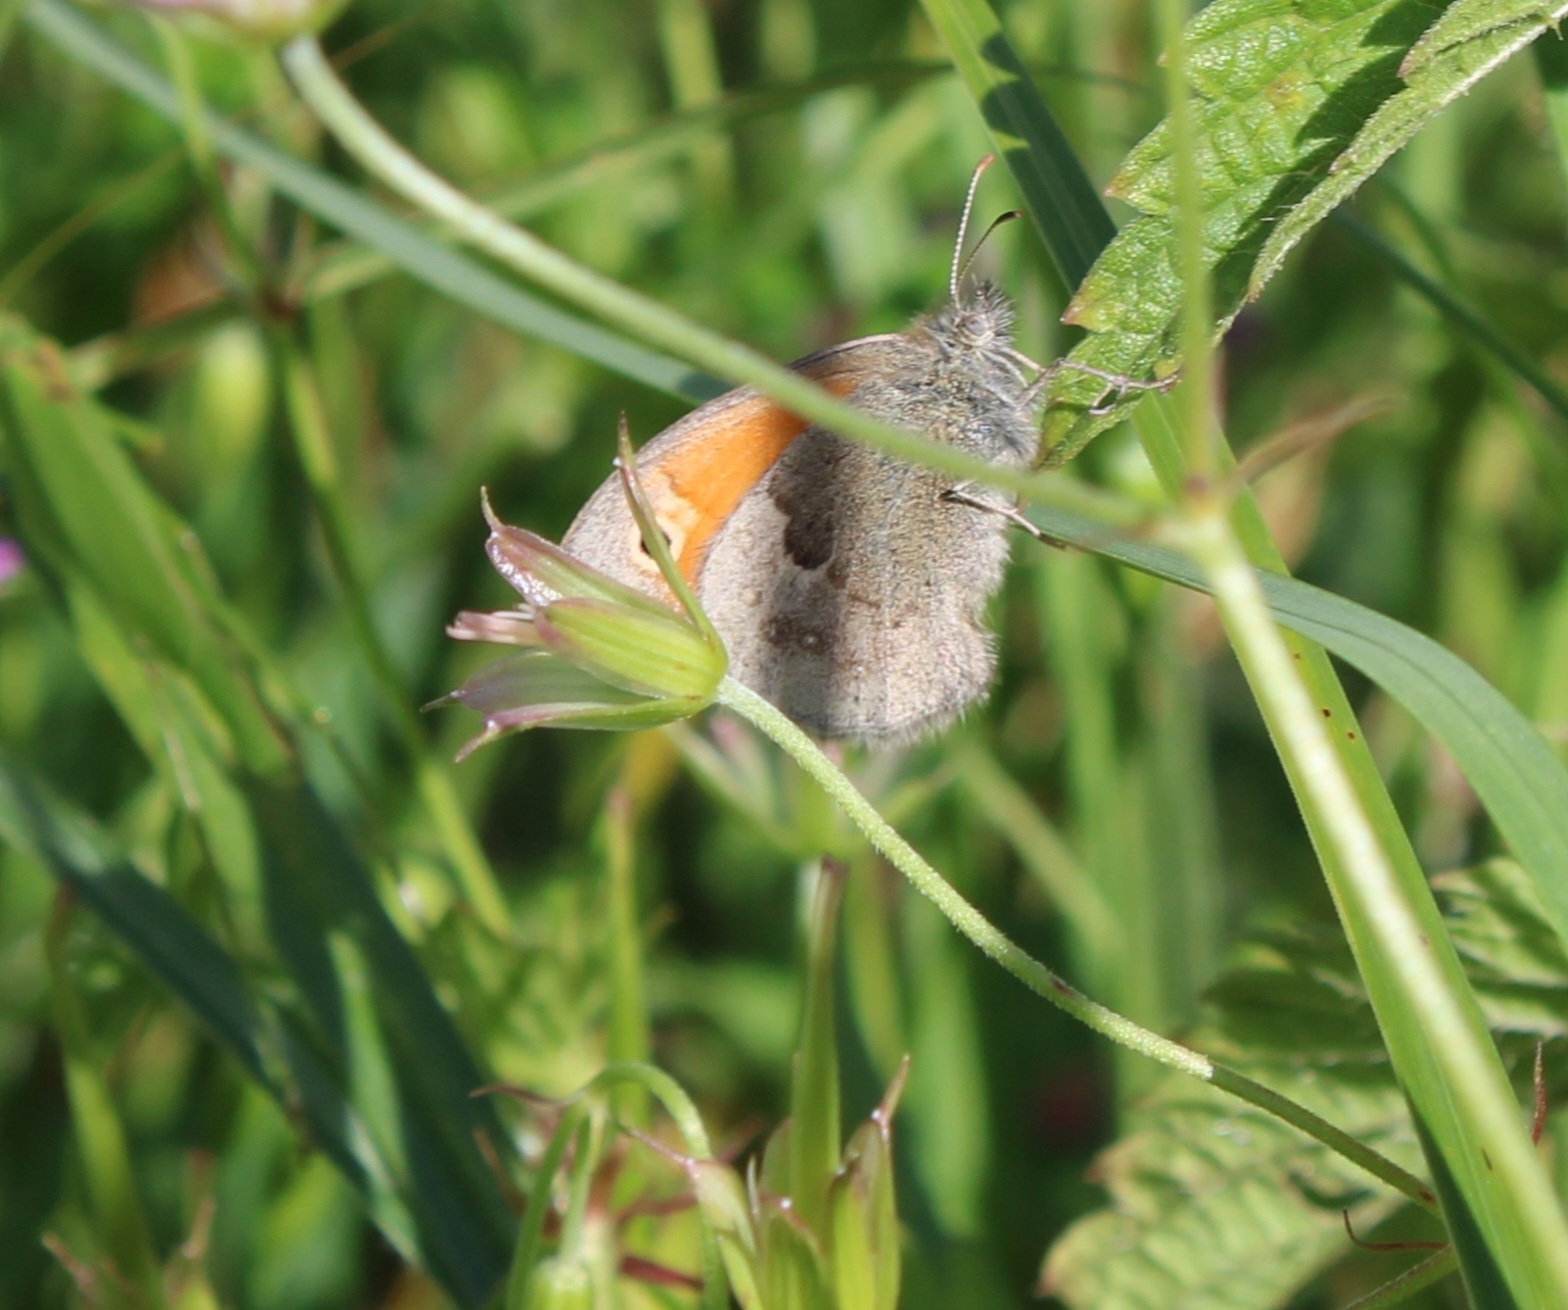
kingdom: Animalia
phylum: Arthropoda
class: Insecta
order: Lepidoptera
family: Nymphalidae
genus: Coenonympha
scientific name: Coenonympha pamphilus
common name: Small heath
